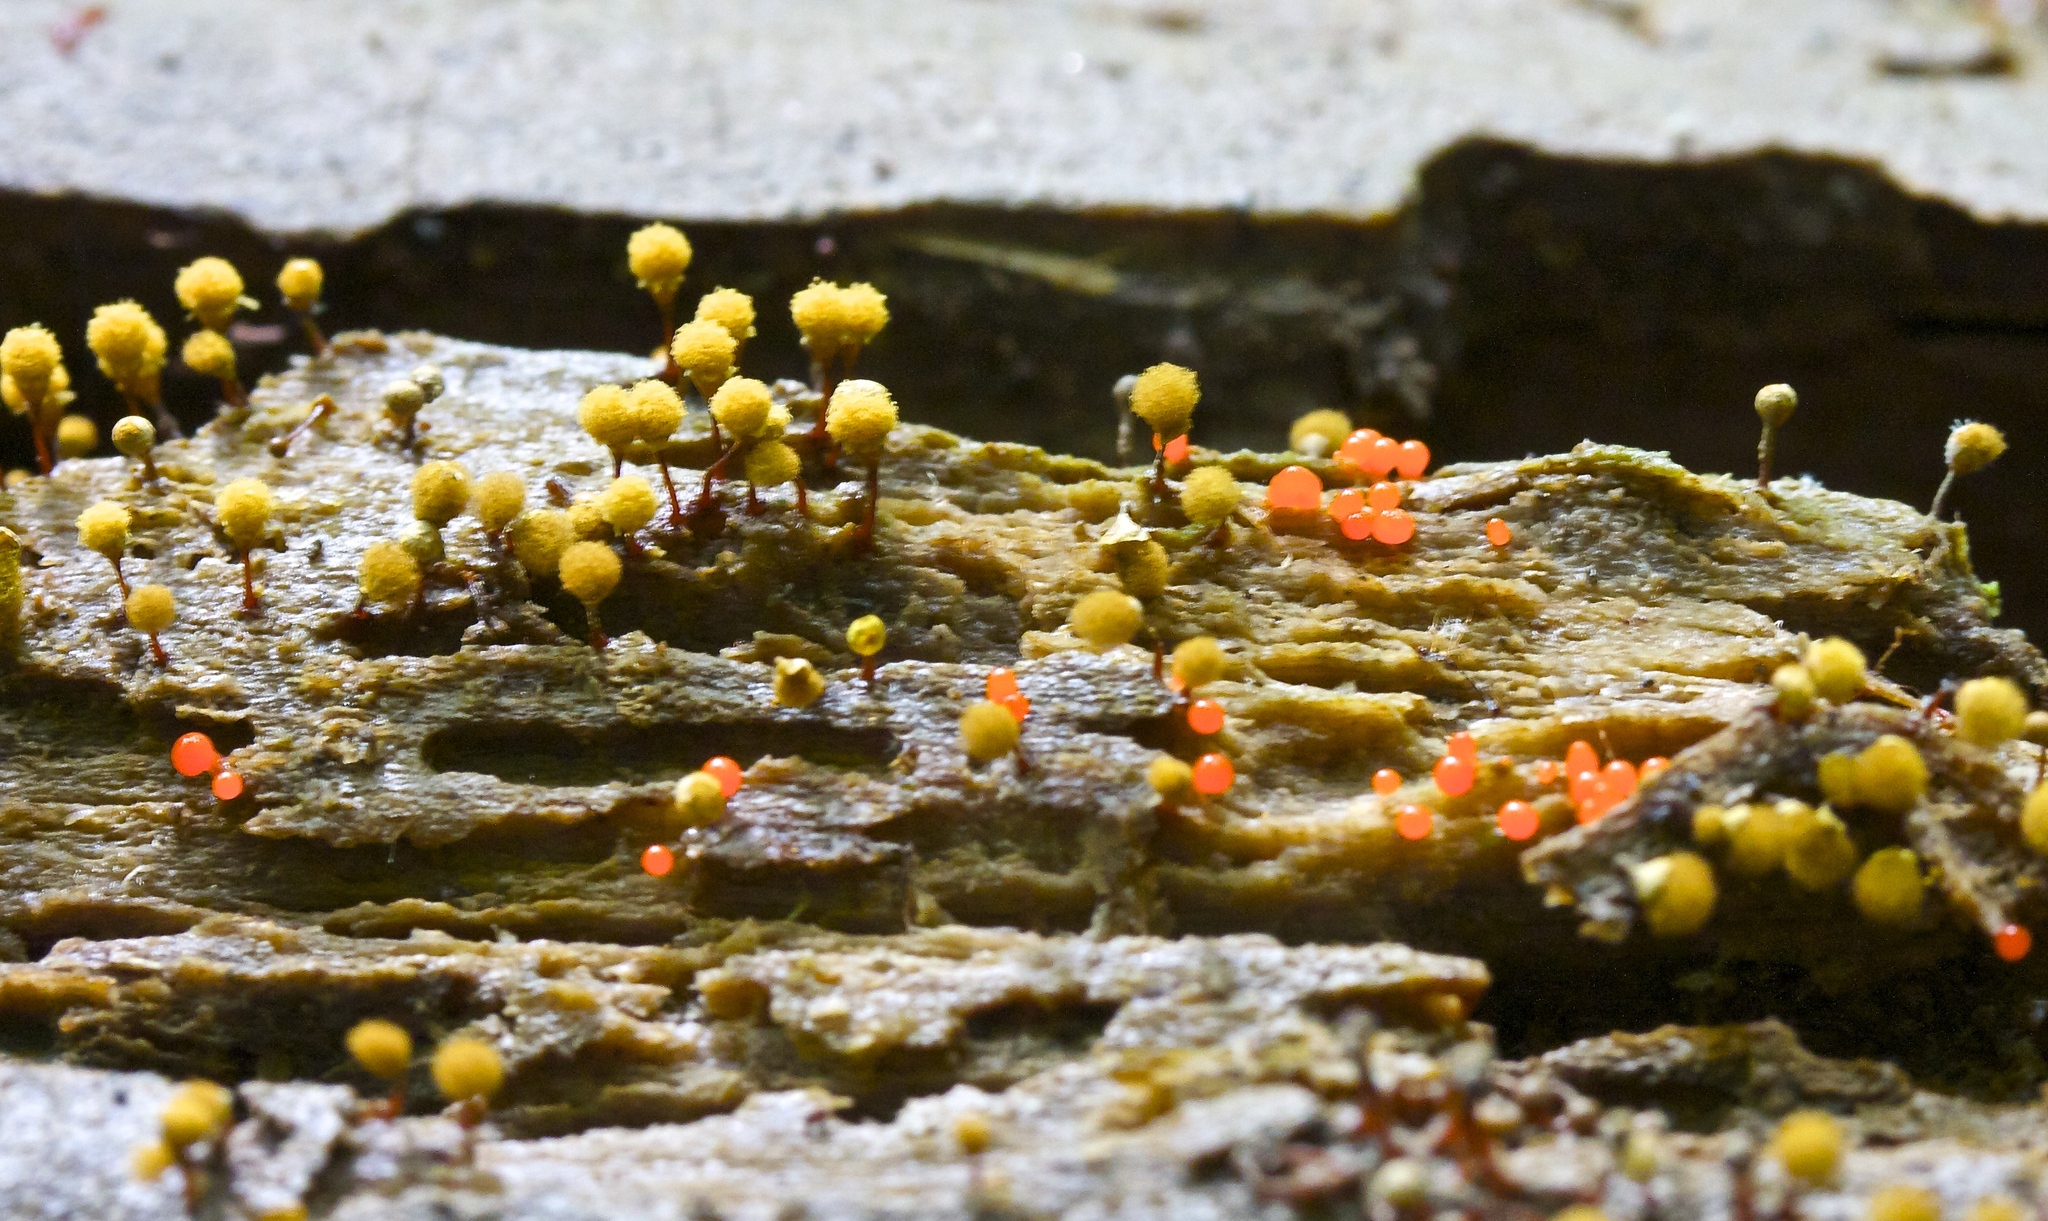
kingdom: Protozoa
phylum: Mycetozoa
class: Myxomycetes
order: Trichiales
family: Arcyriaceae
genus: Hemitrichia
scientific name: Hemitrichia calyculata
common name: Push pin slime mold
